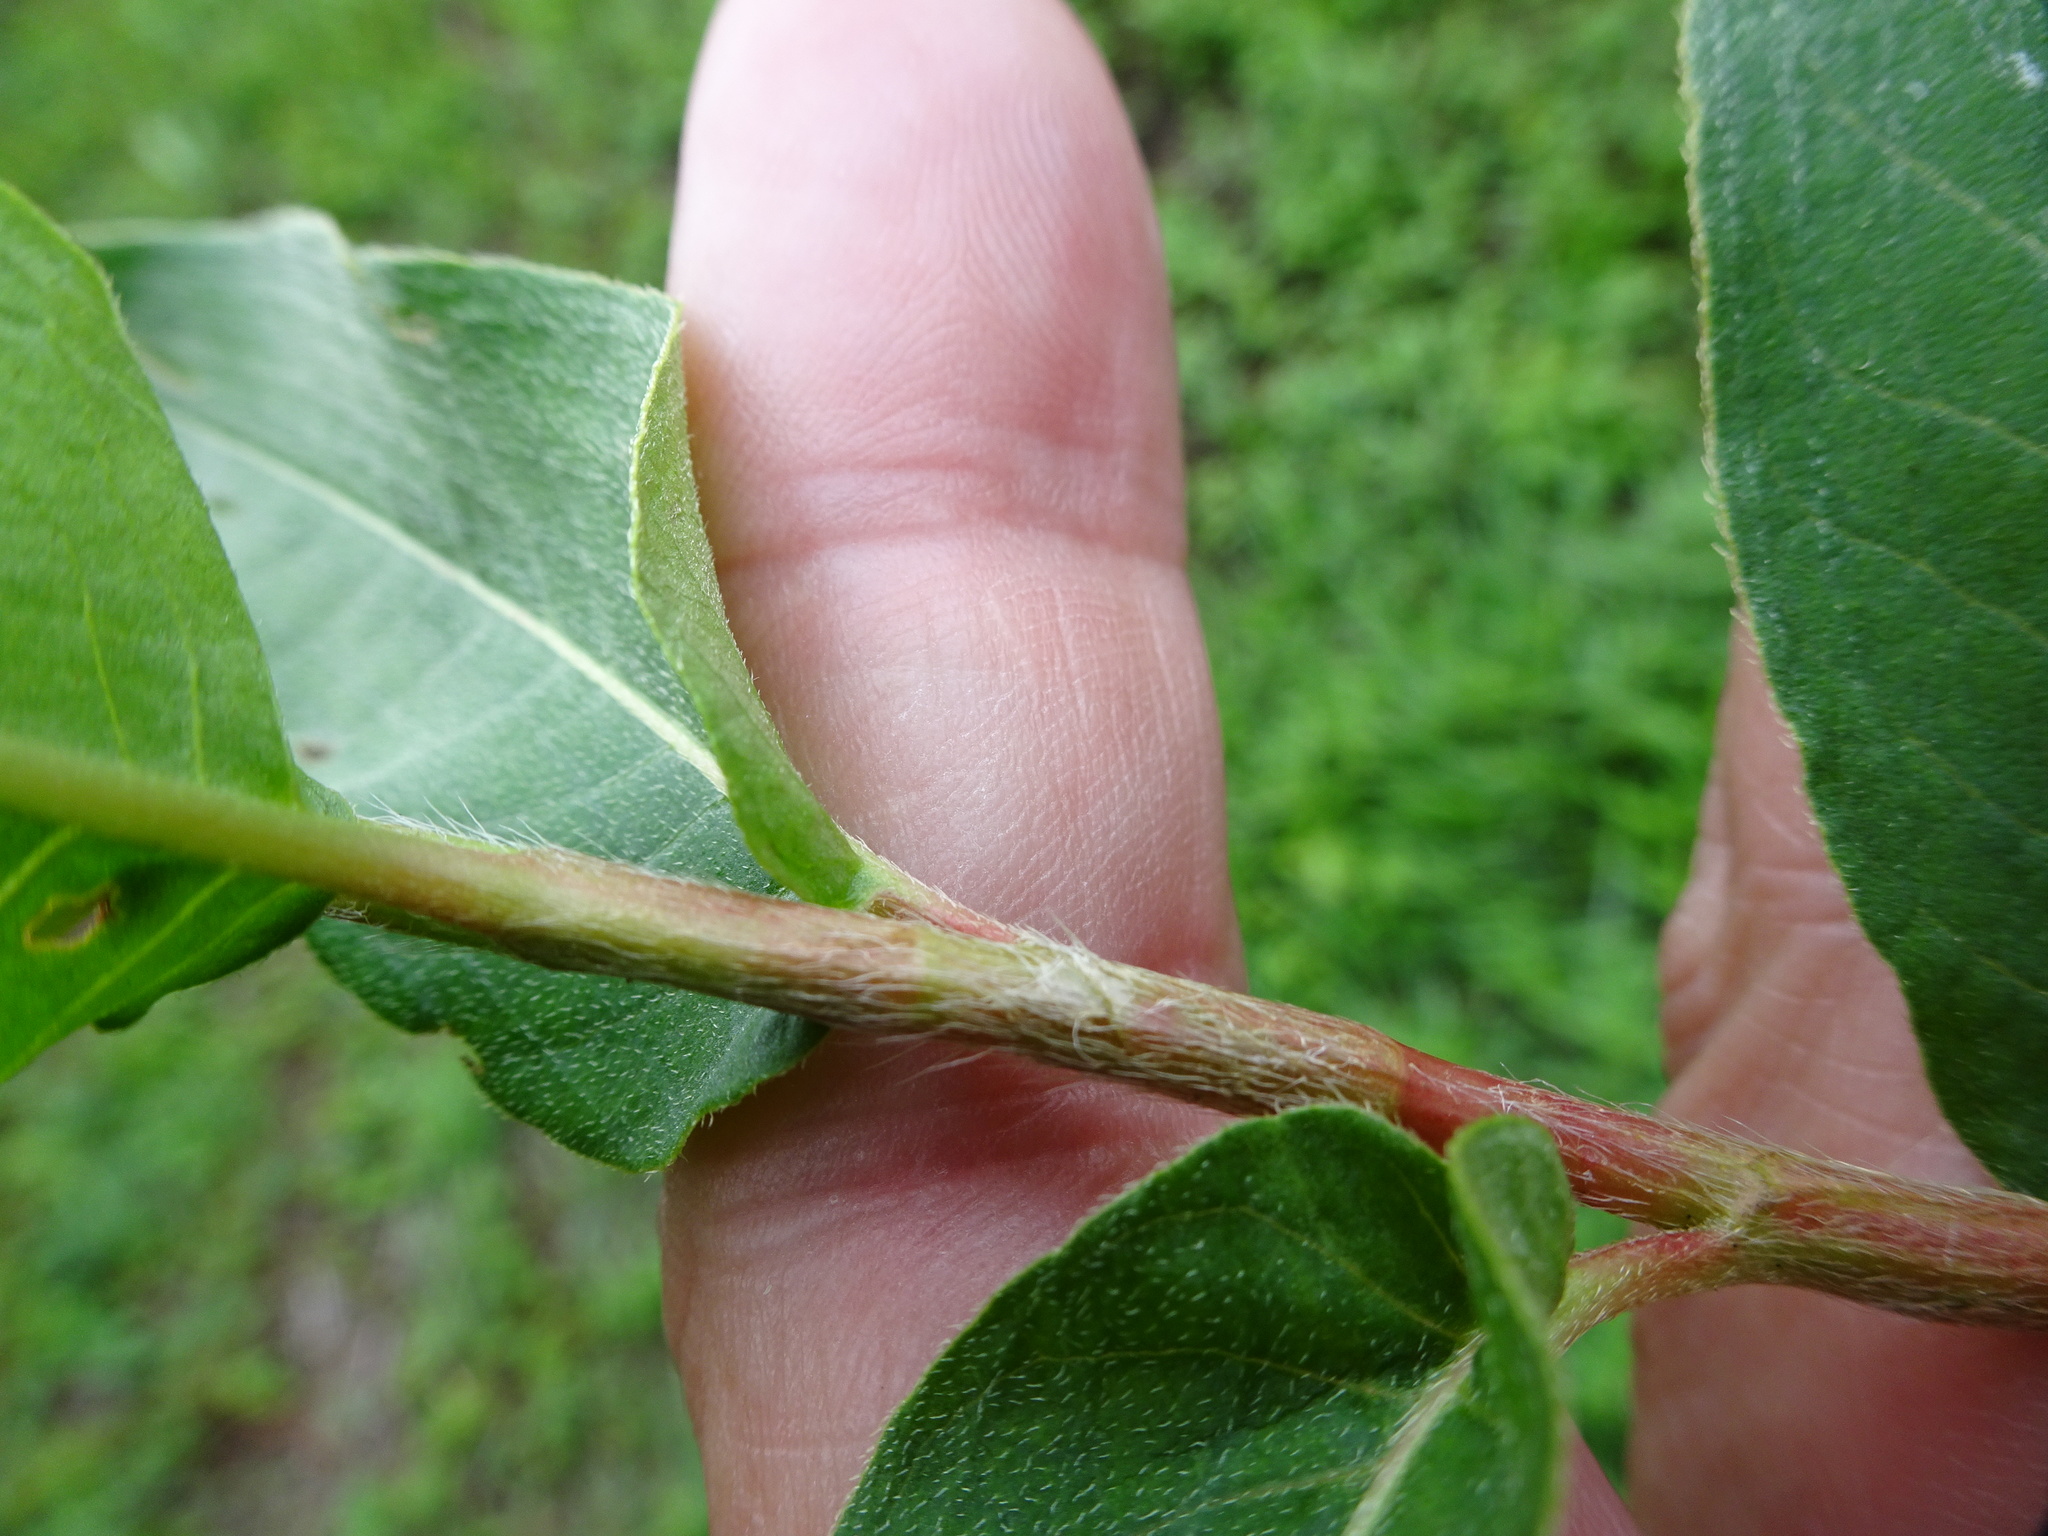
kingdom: Plantae
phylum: Tracheophyta
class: Magnoliopsida
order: Caryophyllales
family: Polygonaceae
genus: Persicaria
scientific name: Persicaria amphibia
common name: Amphibious bistort
